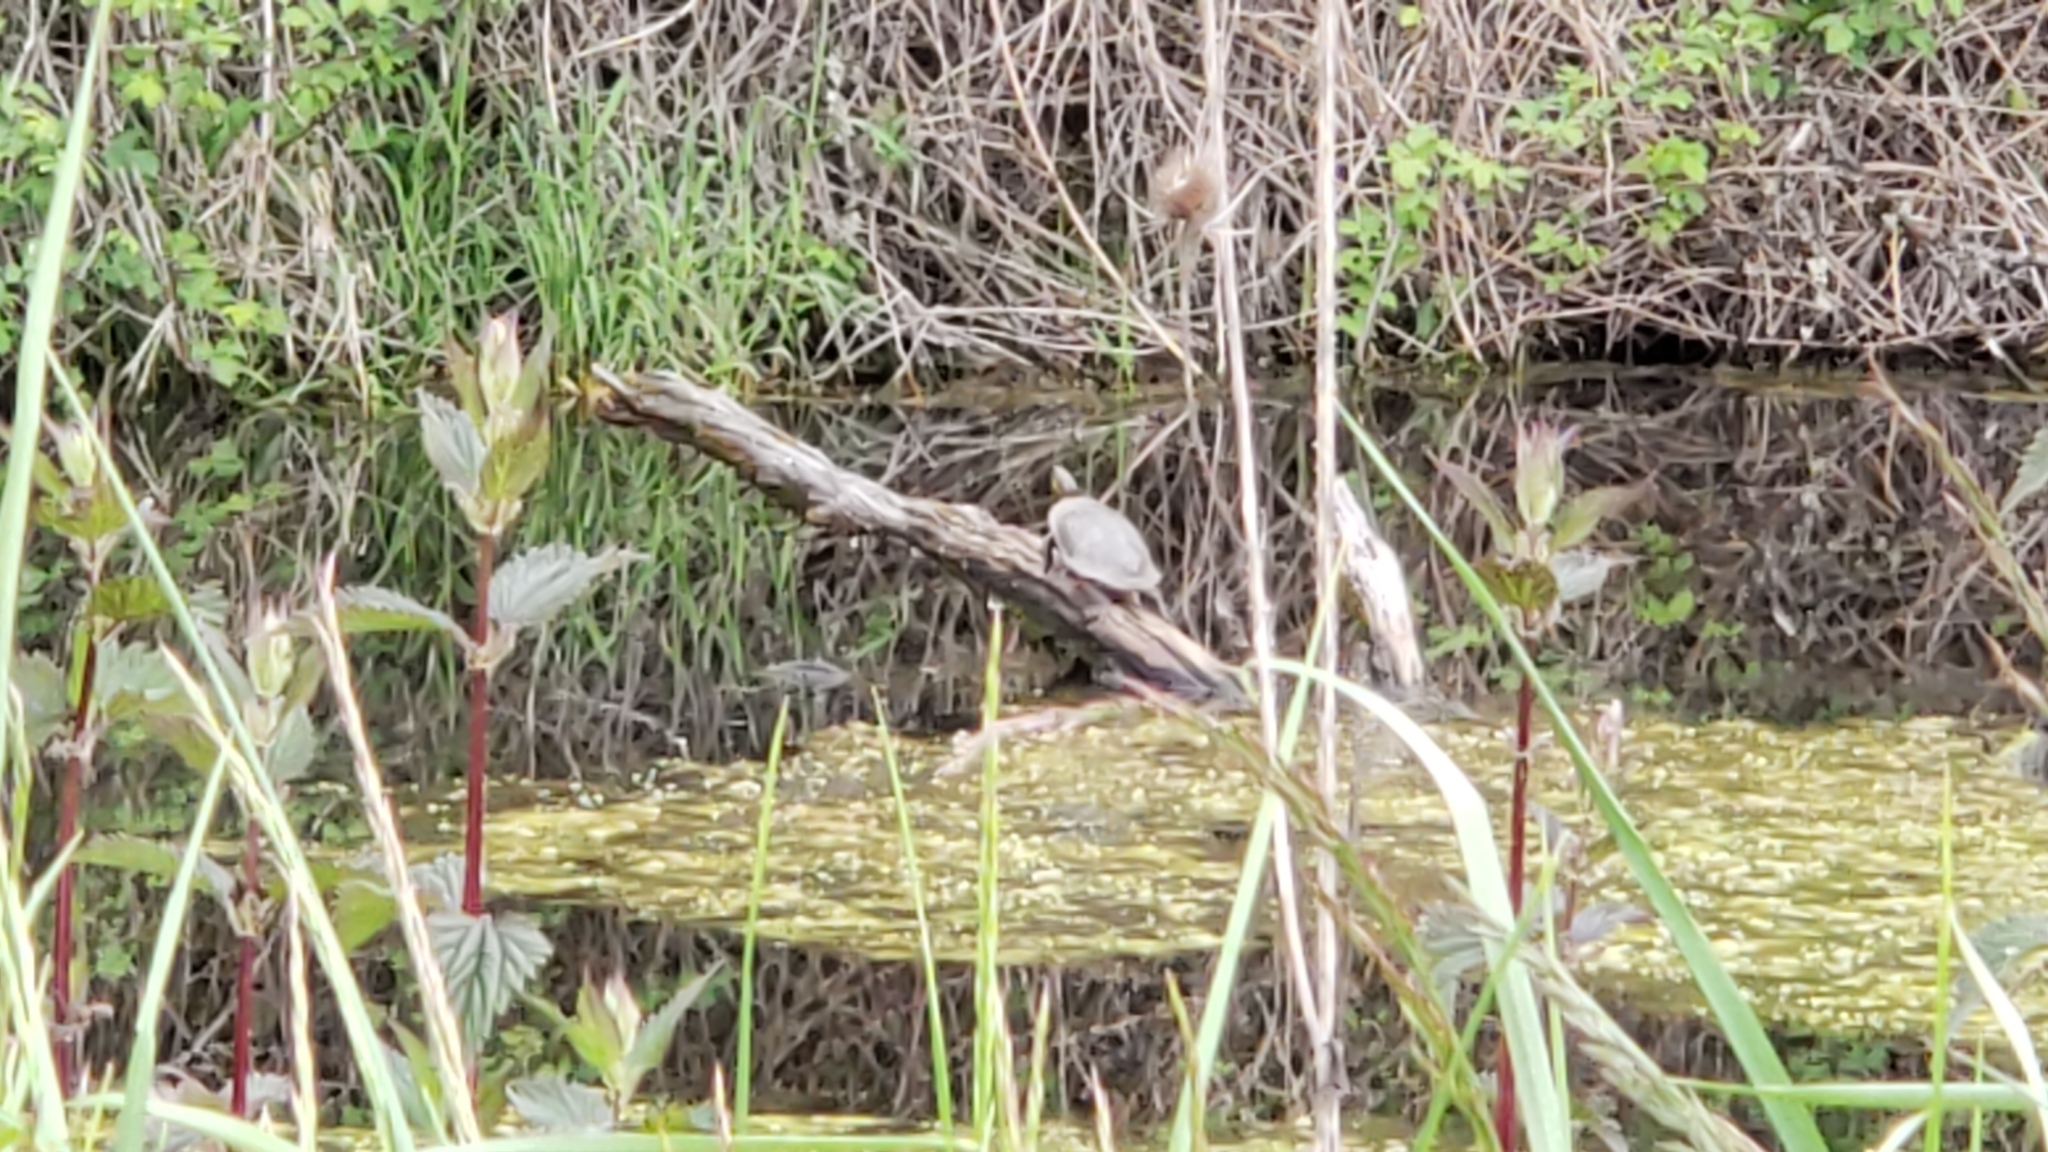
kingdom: Animalia
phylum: Chordata
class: Testudines
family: Emydidae
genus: Chrysemys
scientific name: Chrysemys picta
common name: Painted turtle
